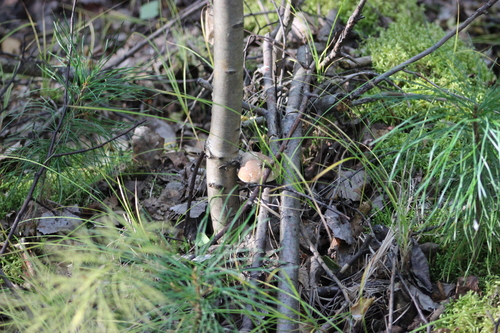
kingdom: Fungi
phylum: Basidiomycota
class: Agaricomycetes
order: Polyporales
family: Fomitopsidaceae
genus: Fomitopsis
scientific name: Fomitopsis betulina
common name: Birch polypore
